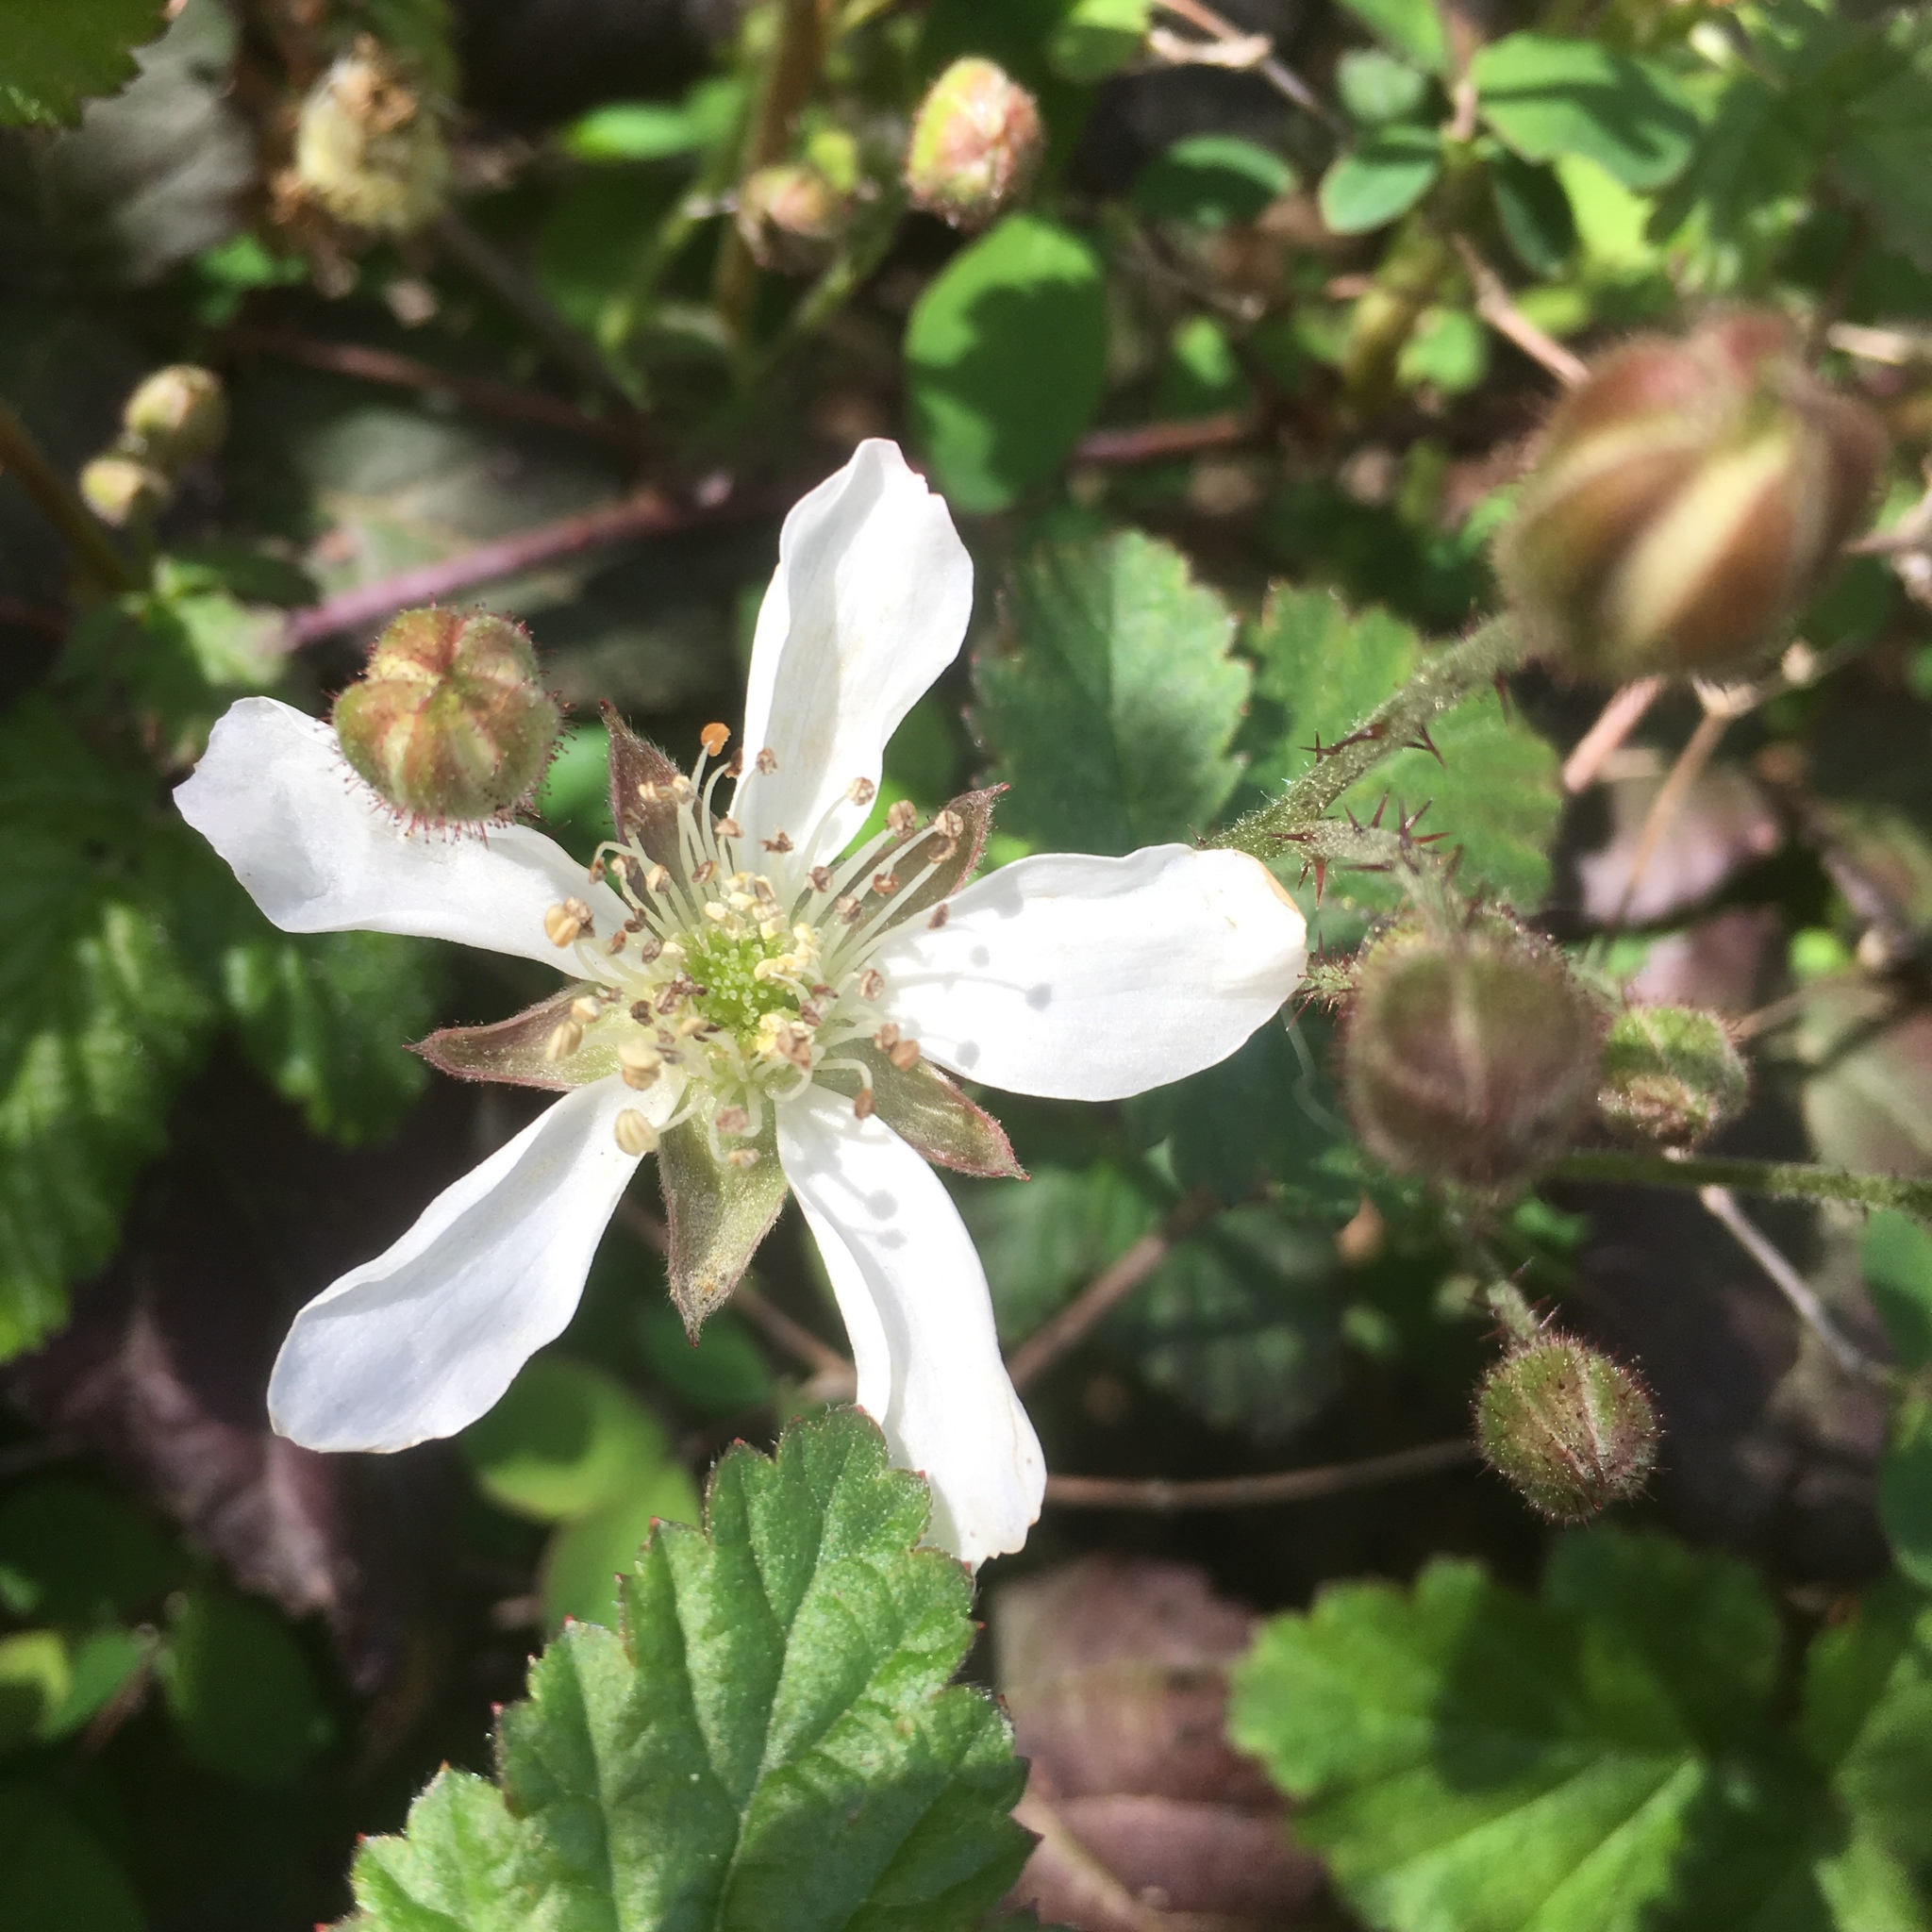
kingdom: Plantae
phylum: Tracheophyta
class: Magnoliopsida
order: Rosales
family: Rosaceae
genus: Rubus
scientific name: Rubus ursinus
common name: Pacific blackberry
